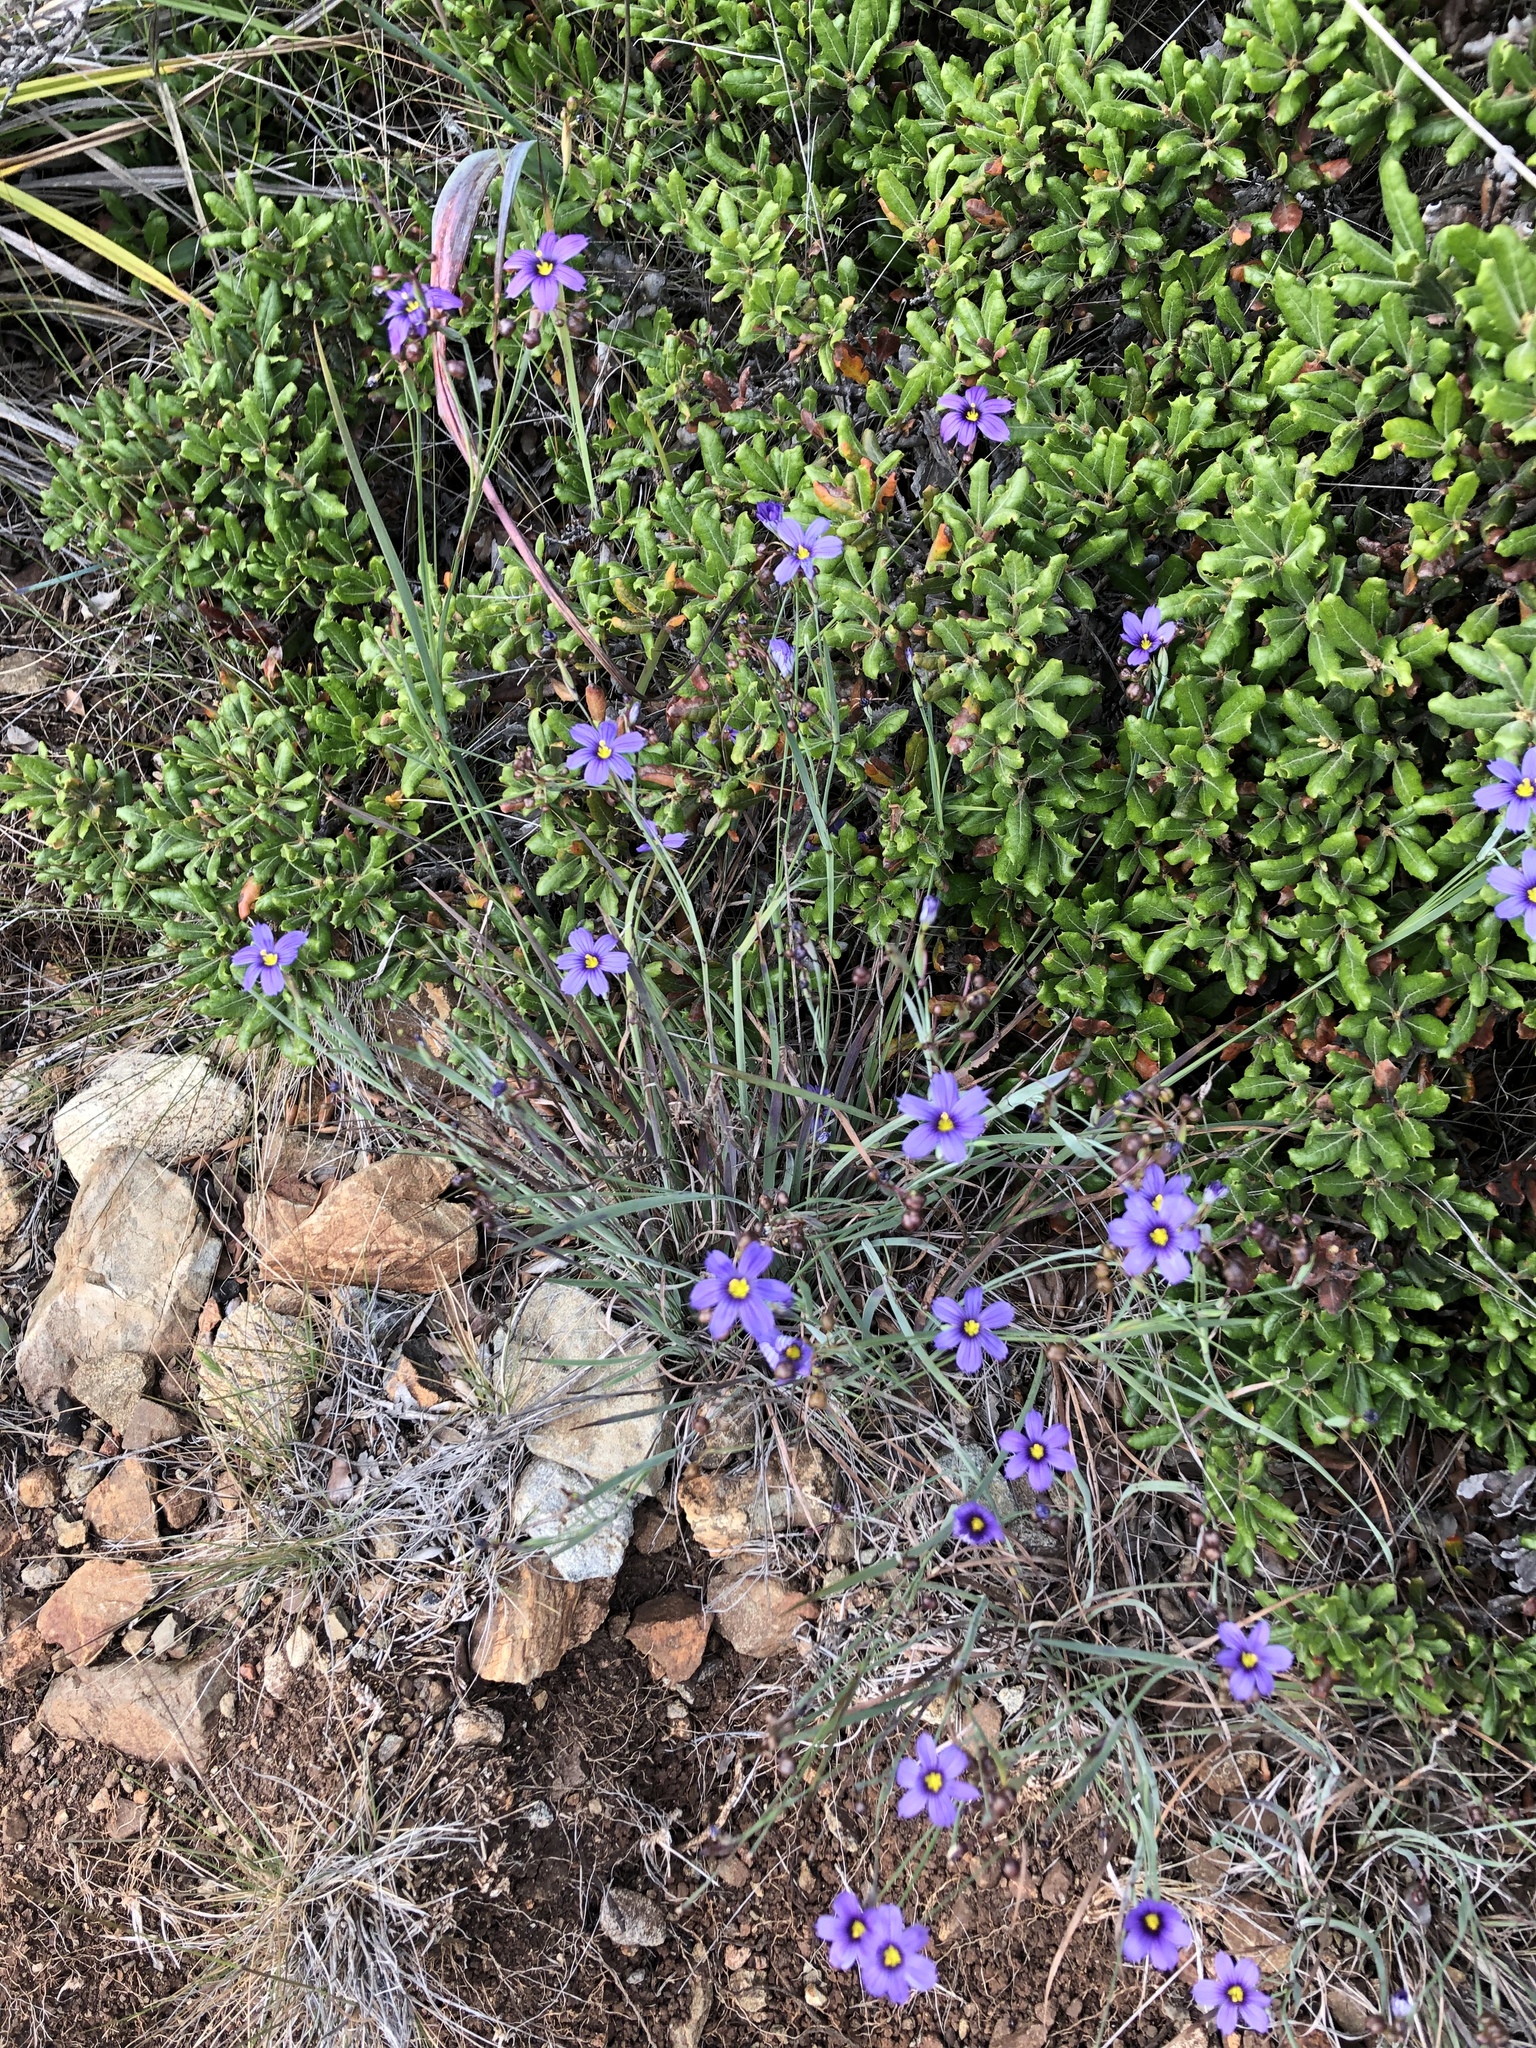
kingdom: Plantae
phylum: Tracheophyta
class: Liliopsida
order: Asparagales
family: Iridaceae
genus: Sisyrinchium
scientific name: Sisyrinchium bellum
